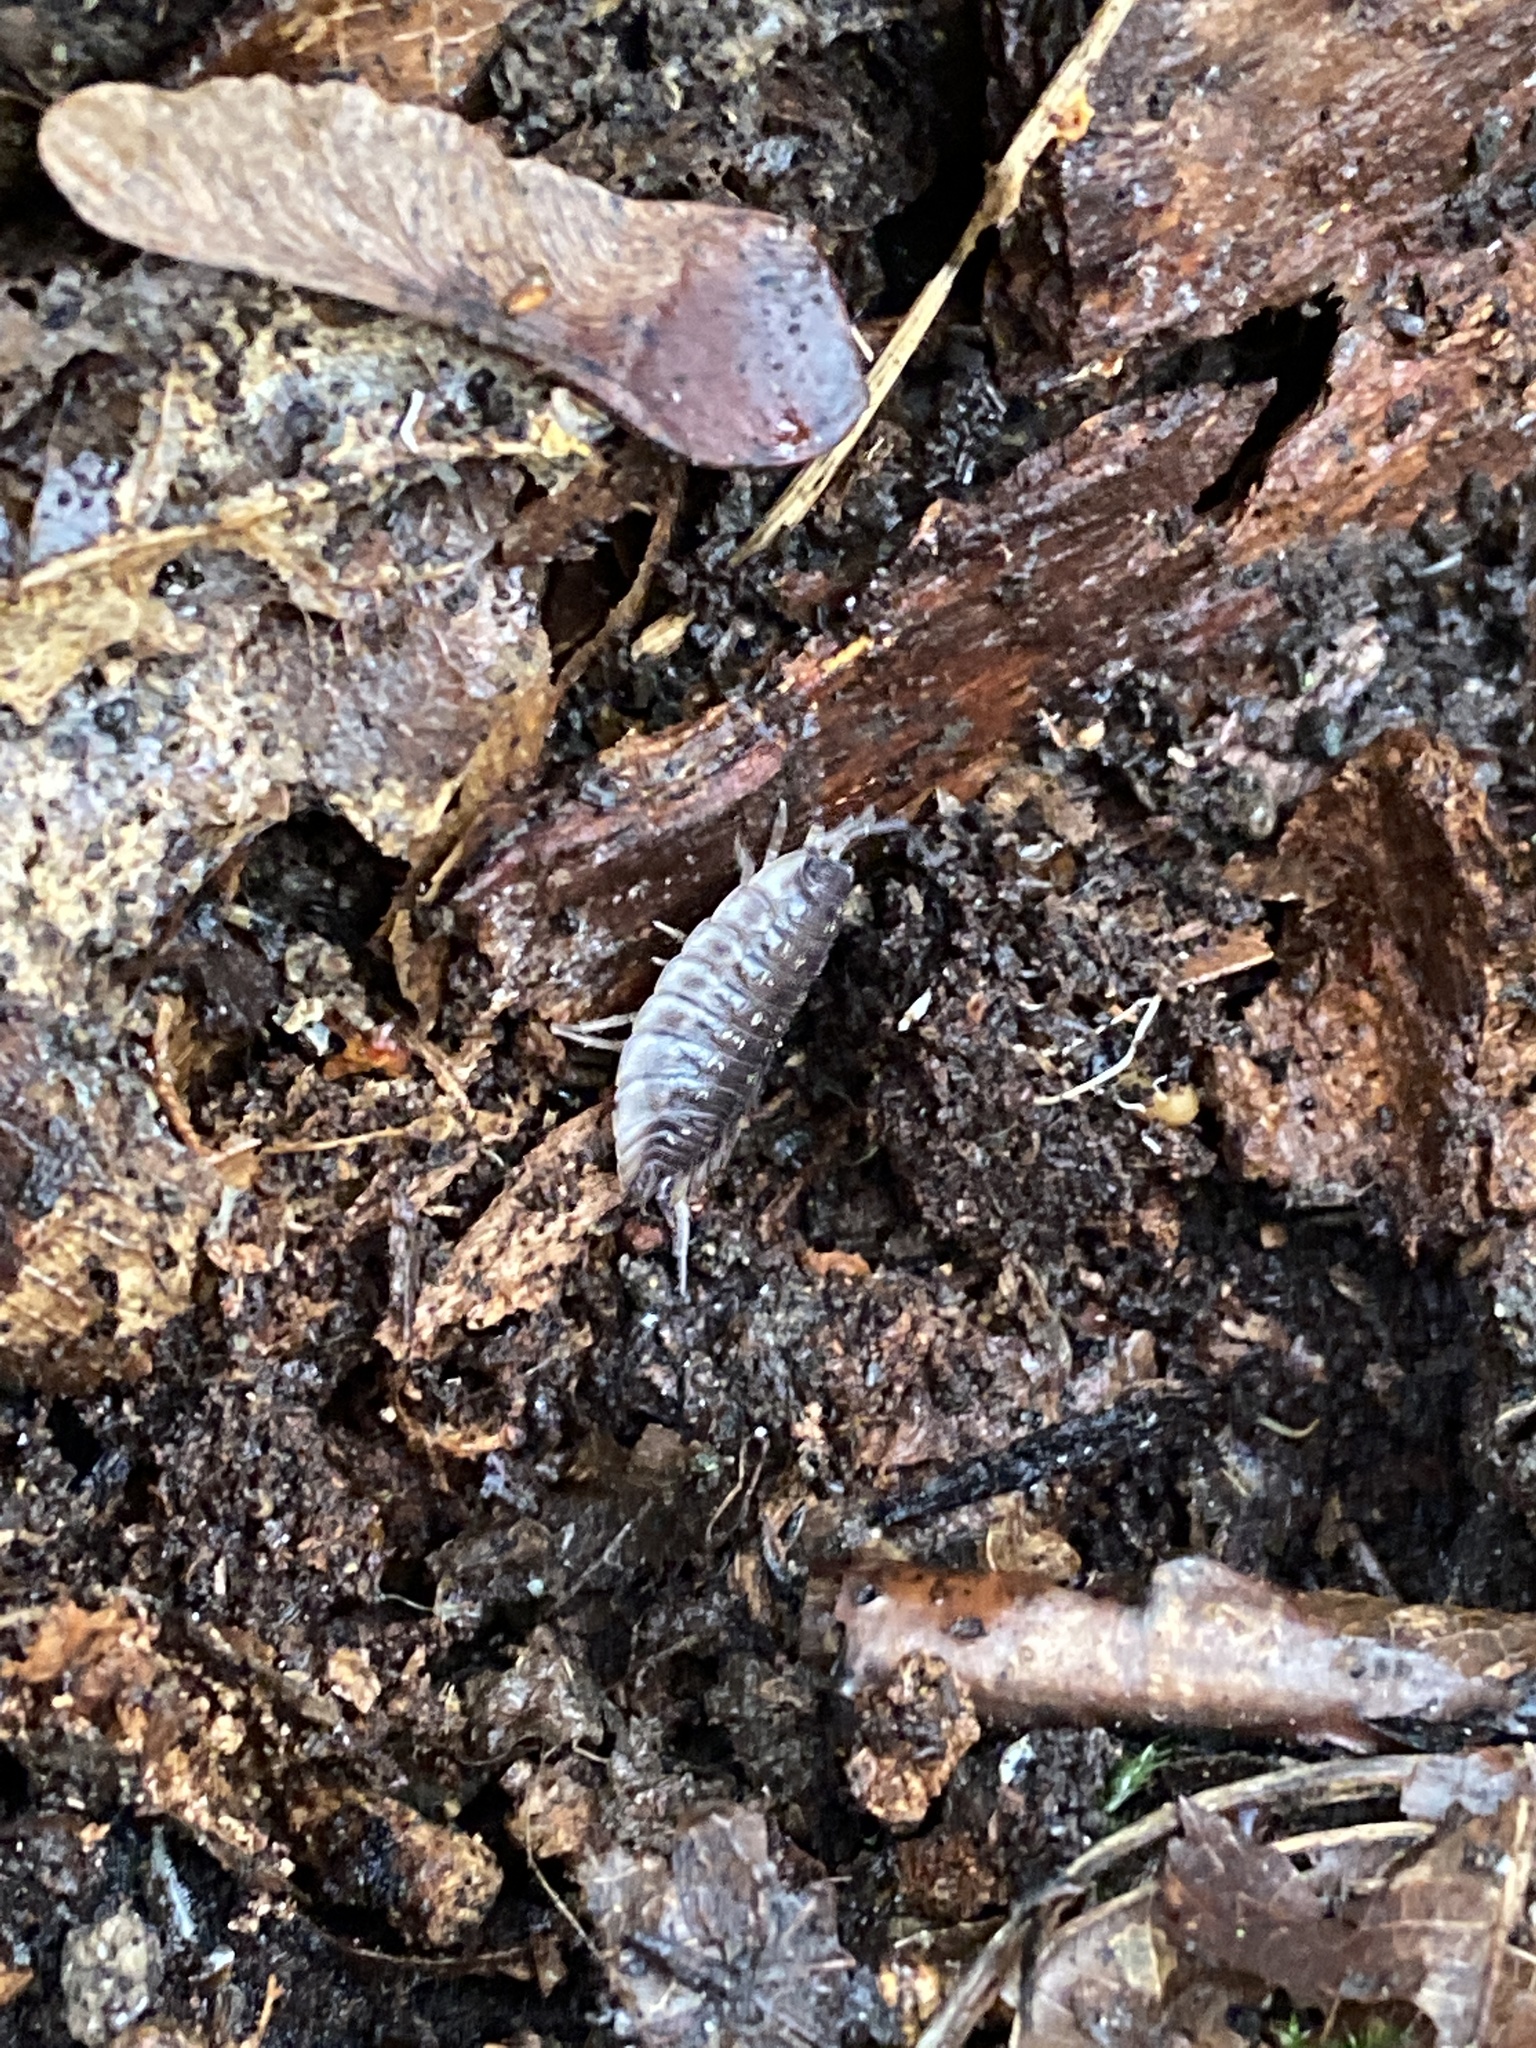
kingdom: Animalia
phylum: Arthropoda
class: Malacostraca
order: Isopoda
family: Oniscidae
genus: Oniscus
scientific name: Oniscus asellus
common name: Common shiny woodlouse
